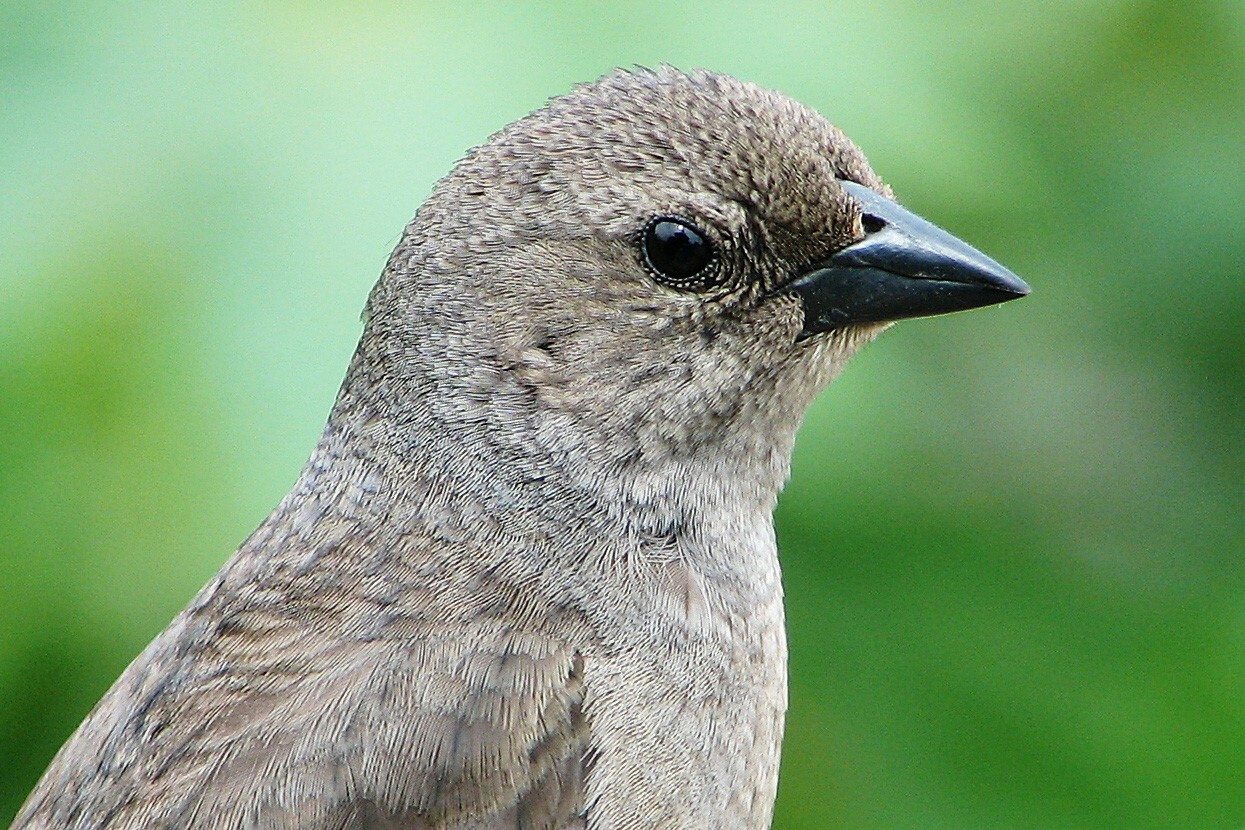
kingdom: Animalia
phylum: Chordata
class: Aves
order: Passeriformes
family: Icteridae
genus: Molothrus
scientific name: Molothrus bonariensis
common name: Shiny cowbird
